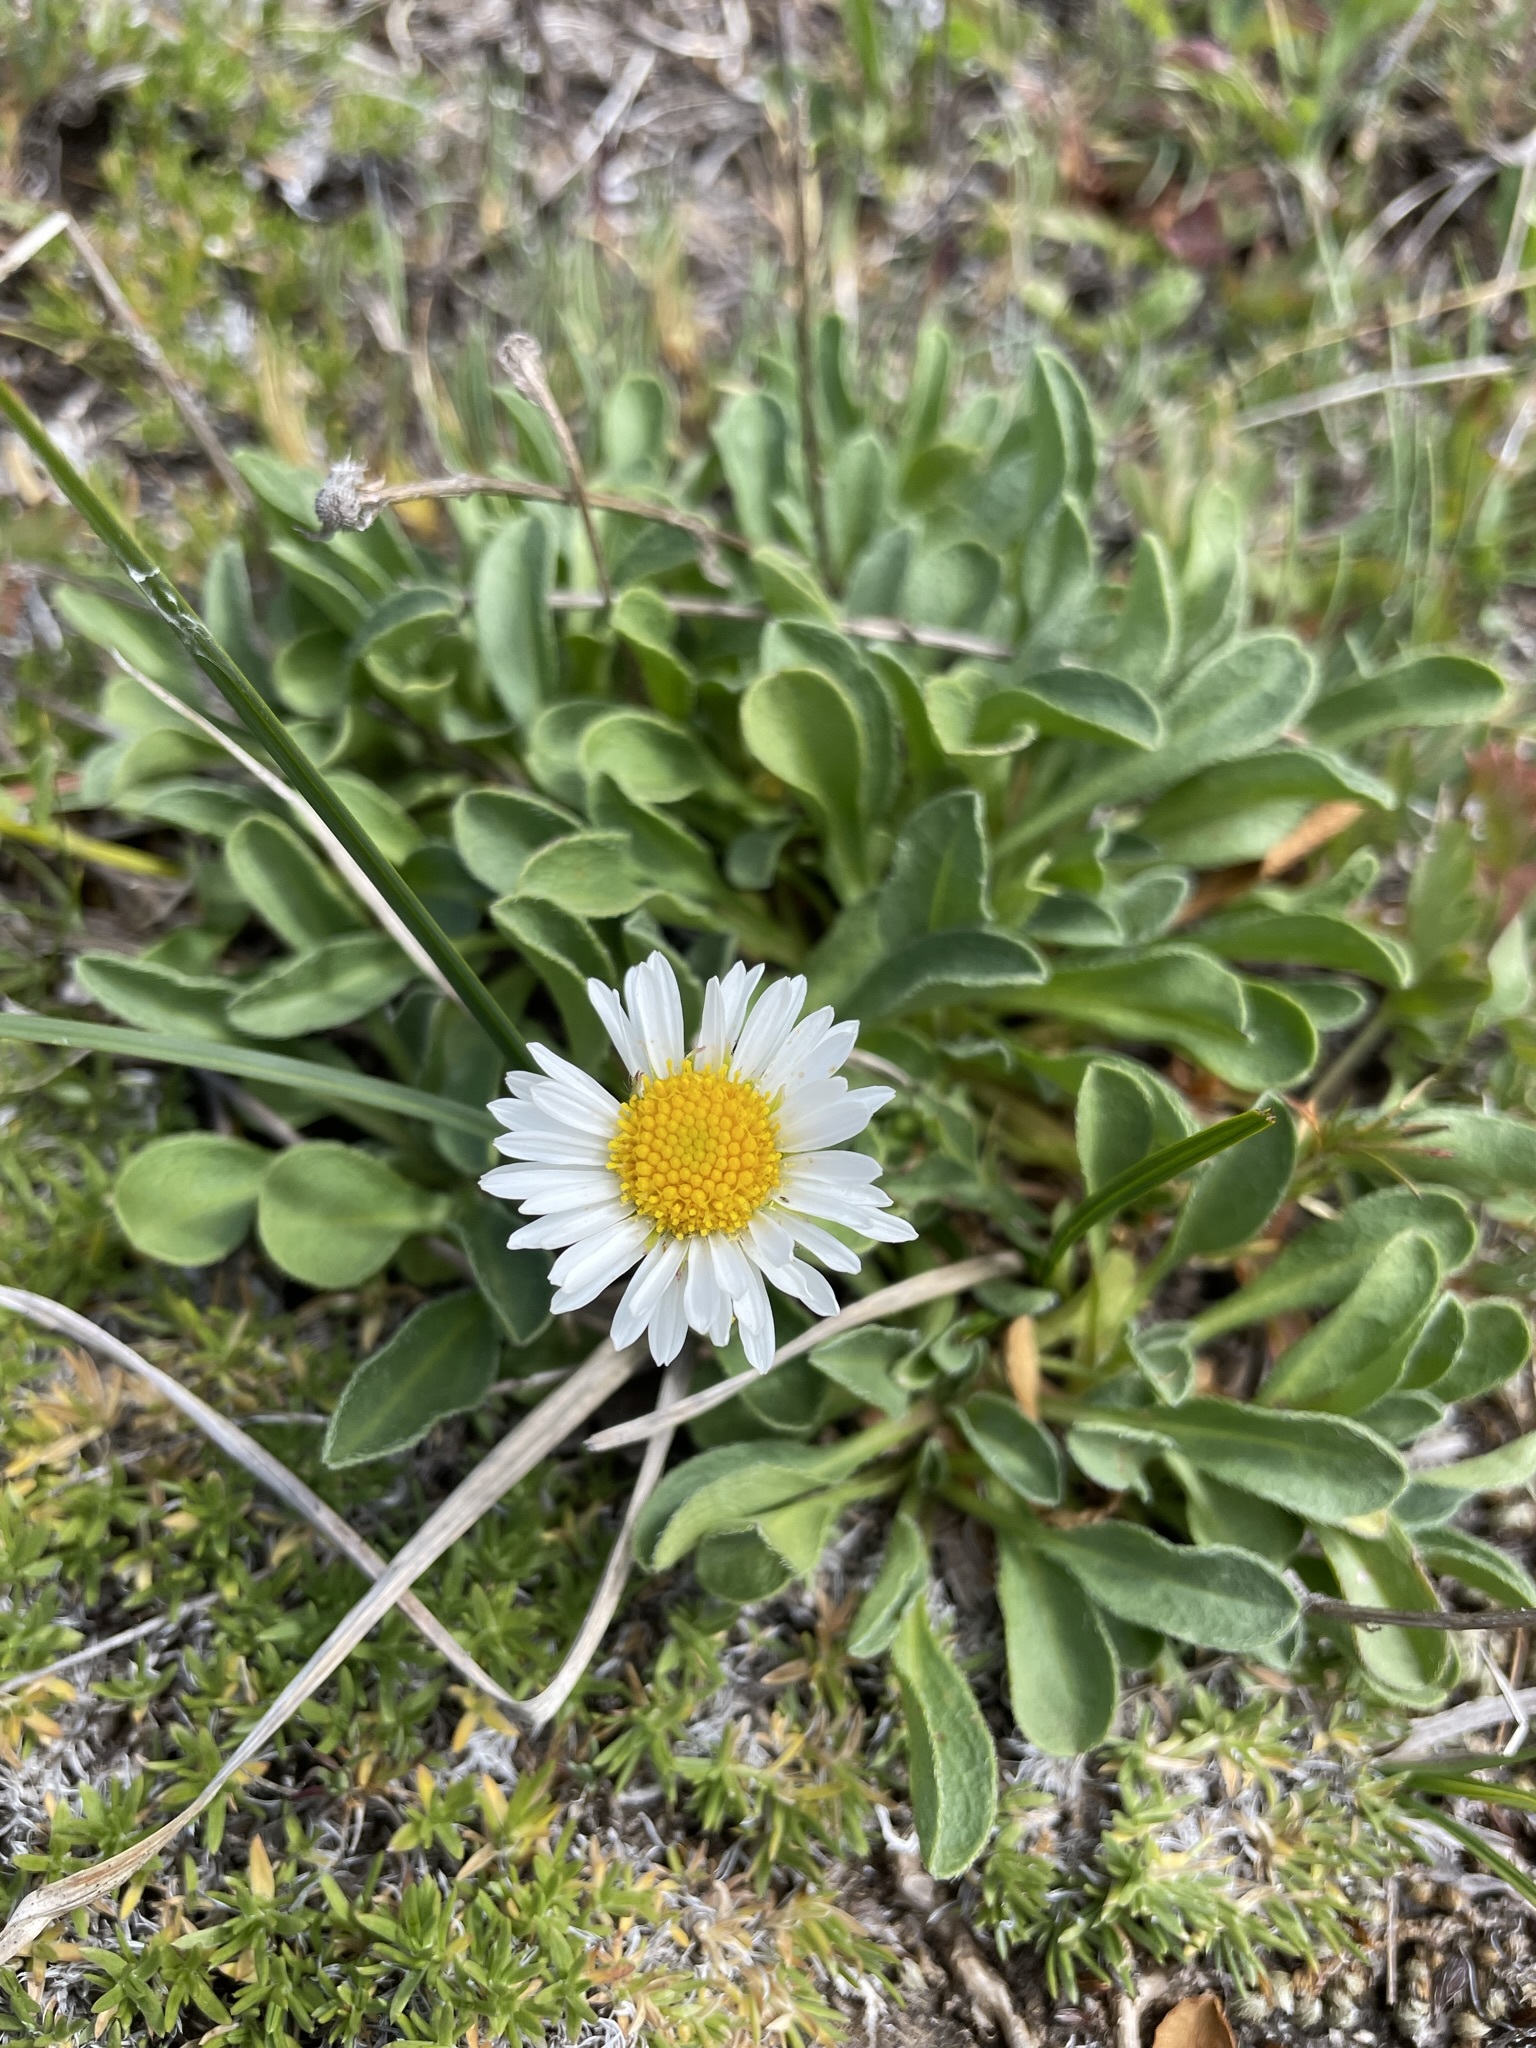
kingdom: Plantae
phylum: Tracheophyta
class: Magnoliopsida
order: Asterales
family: Asteraceae
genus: Erigeron
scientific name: Erigeron flettii
